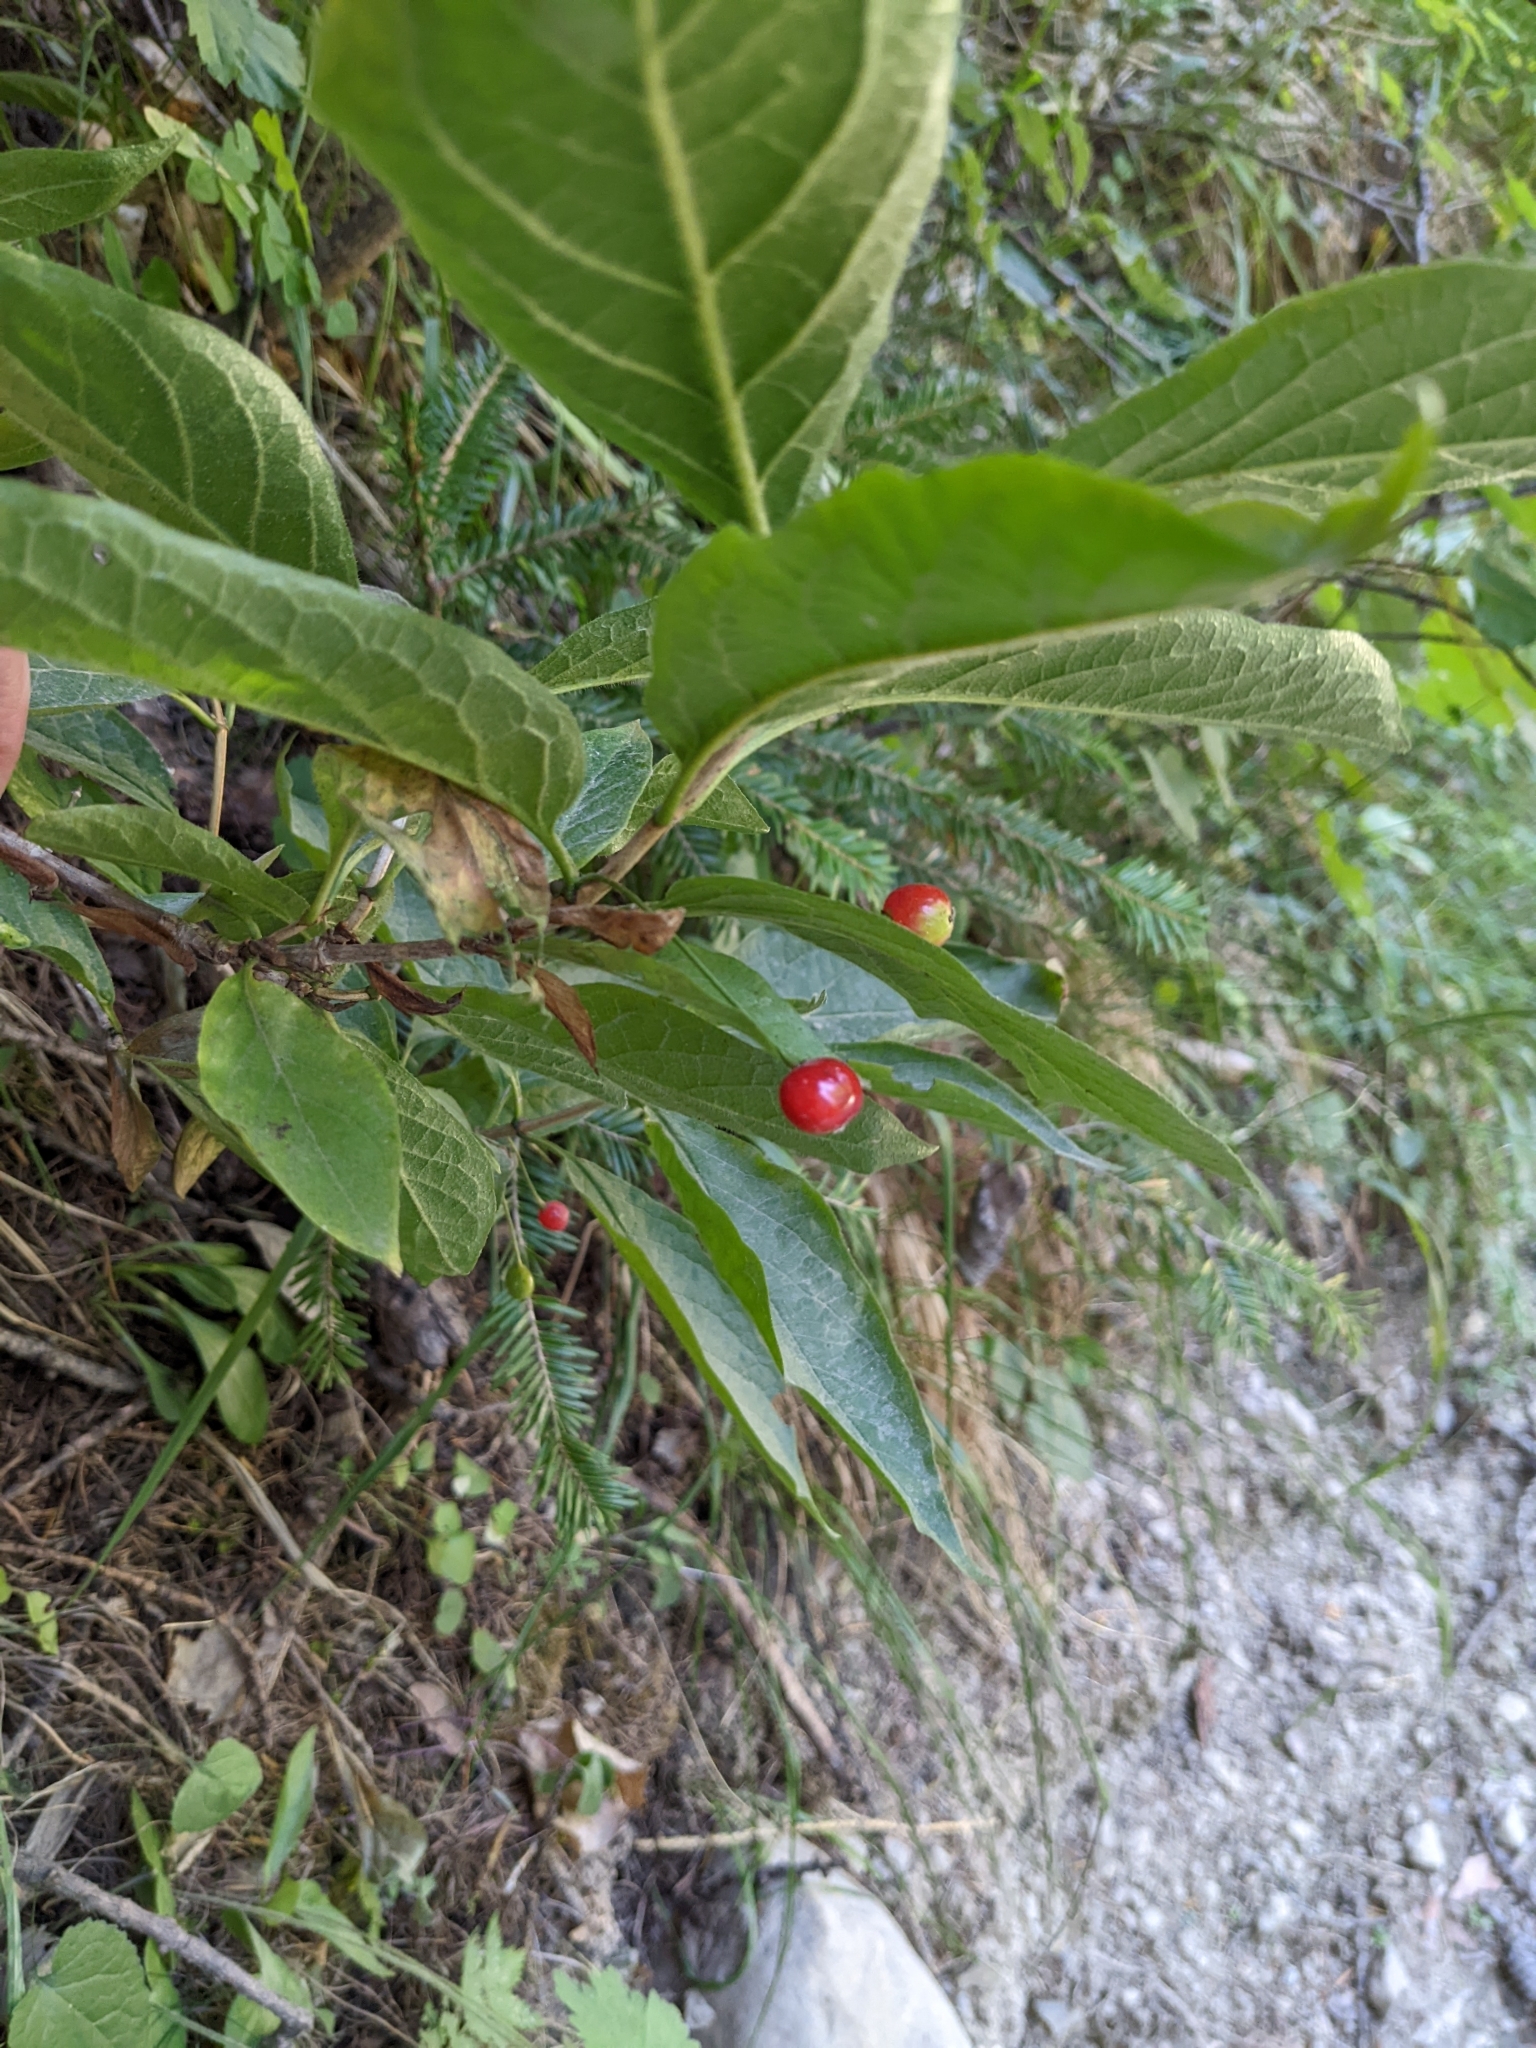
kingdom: Plantae
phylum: Tracheophyta
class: Magnoliopsida
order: Dipsacales
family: Caprifoliaceae
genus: Lonicera
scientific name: Lonicera alpigena
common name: Alpine honeysuckle
